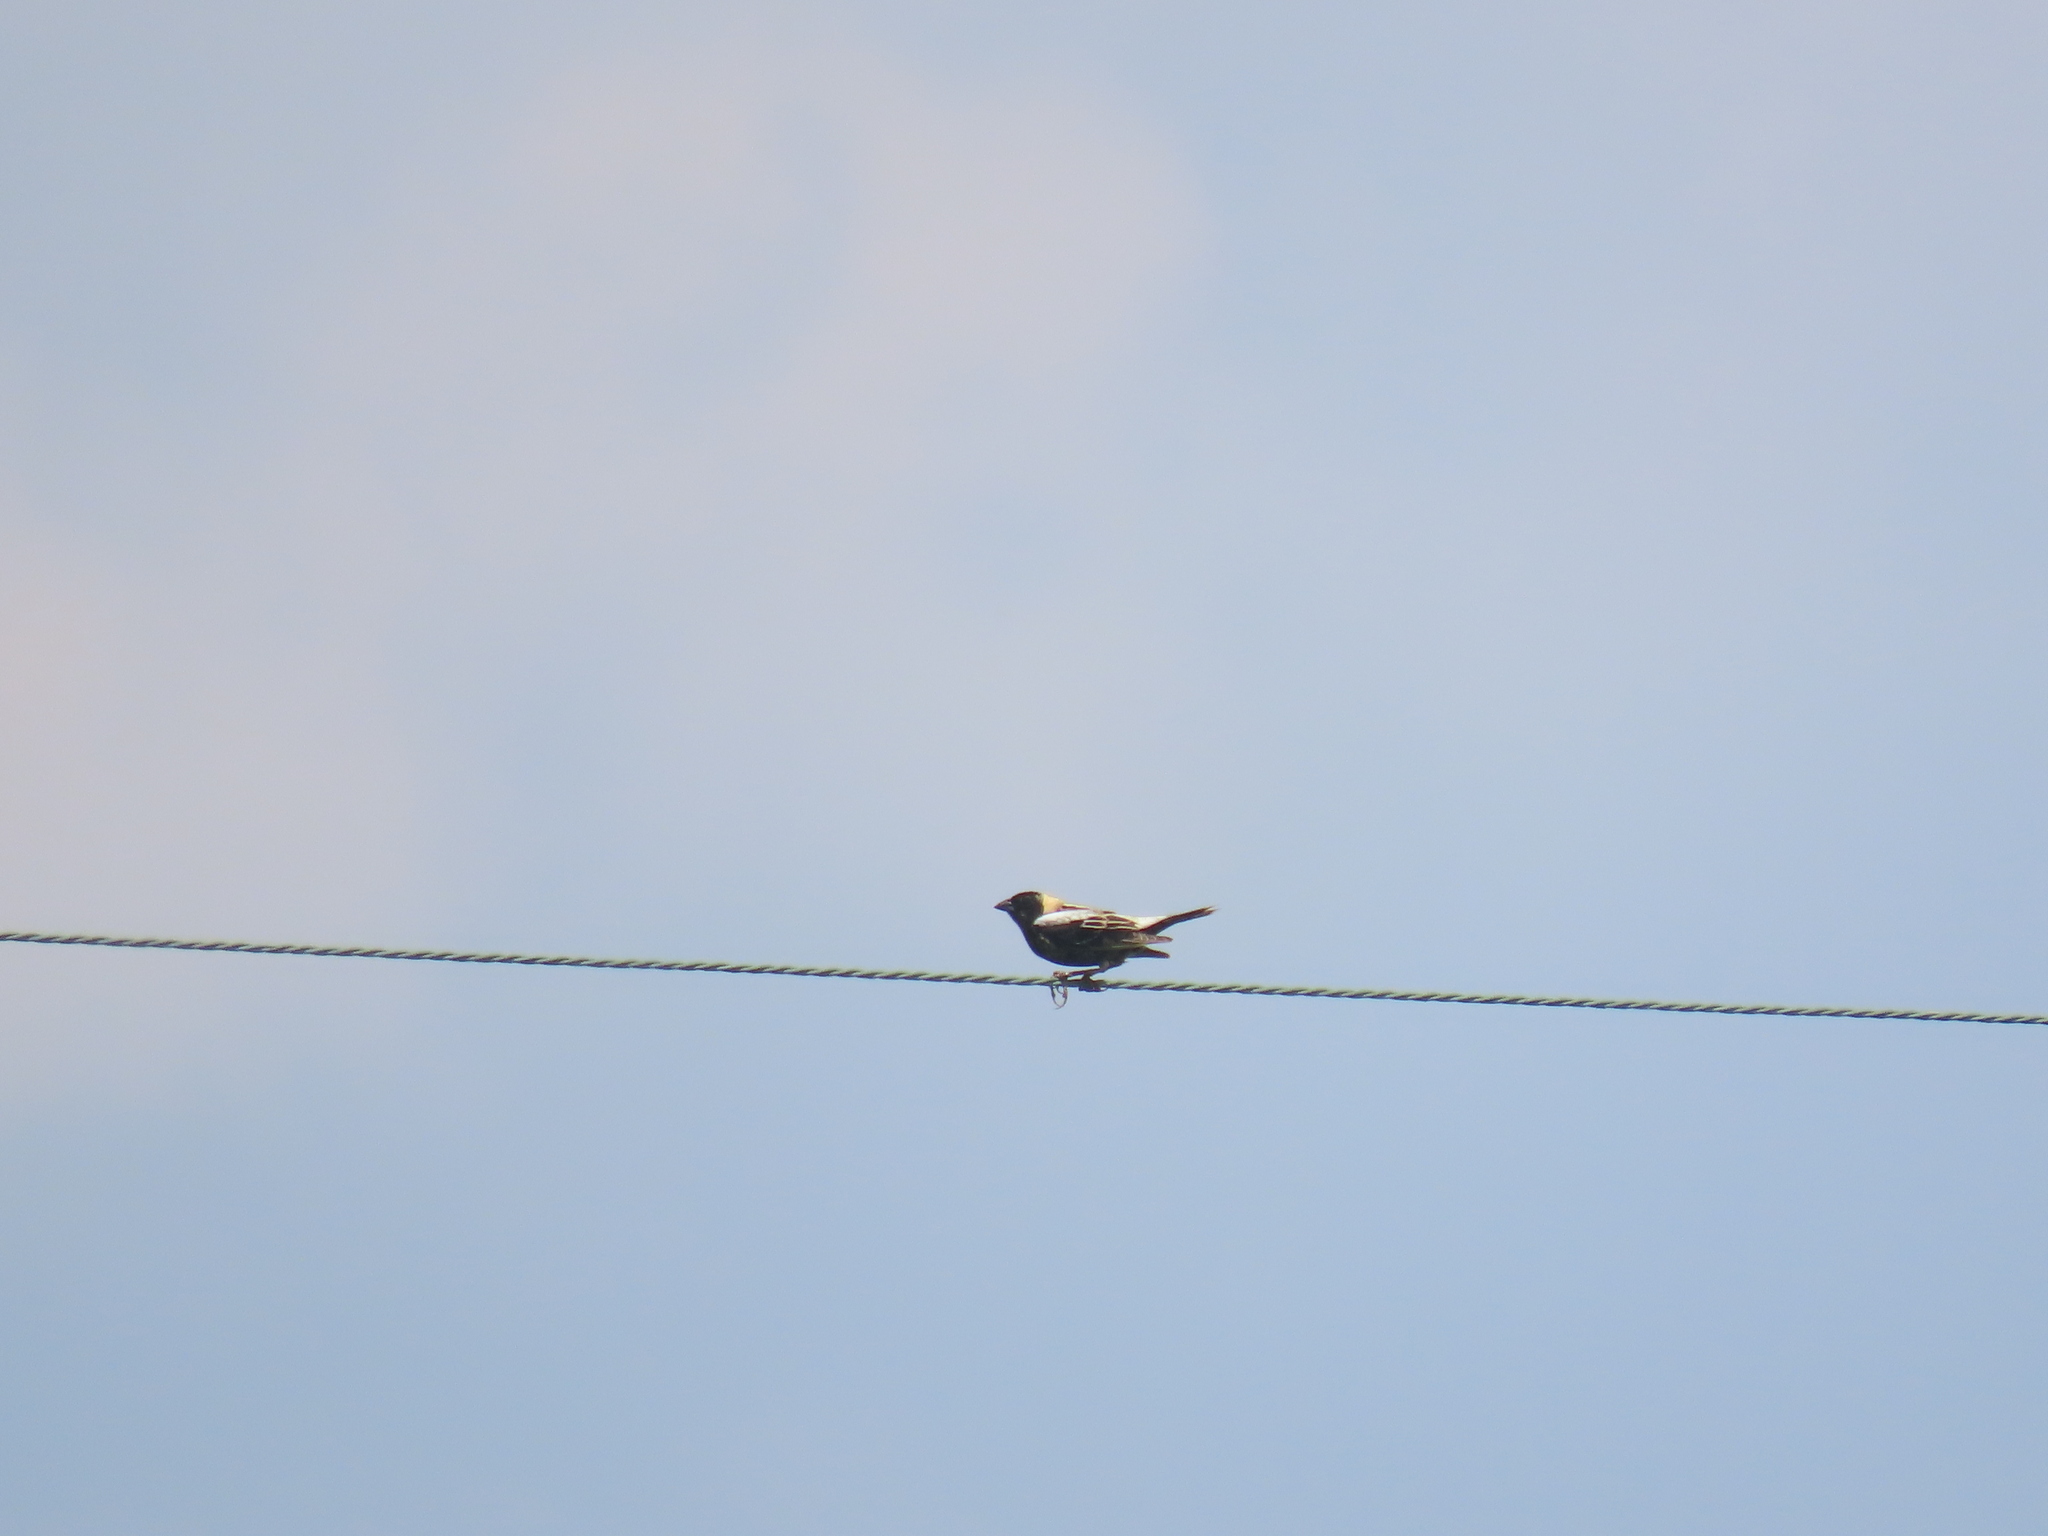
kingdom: Animalia
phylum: Chordata
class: Aves
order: Passeriformes
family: Icteridae
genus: Dolichonyx
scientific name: Dolichonyx oryzivorus
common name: Bobolink
